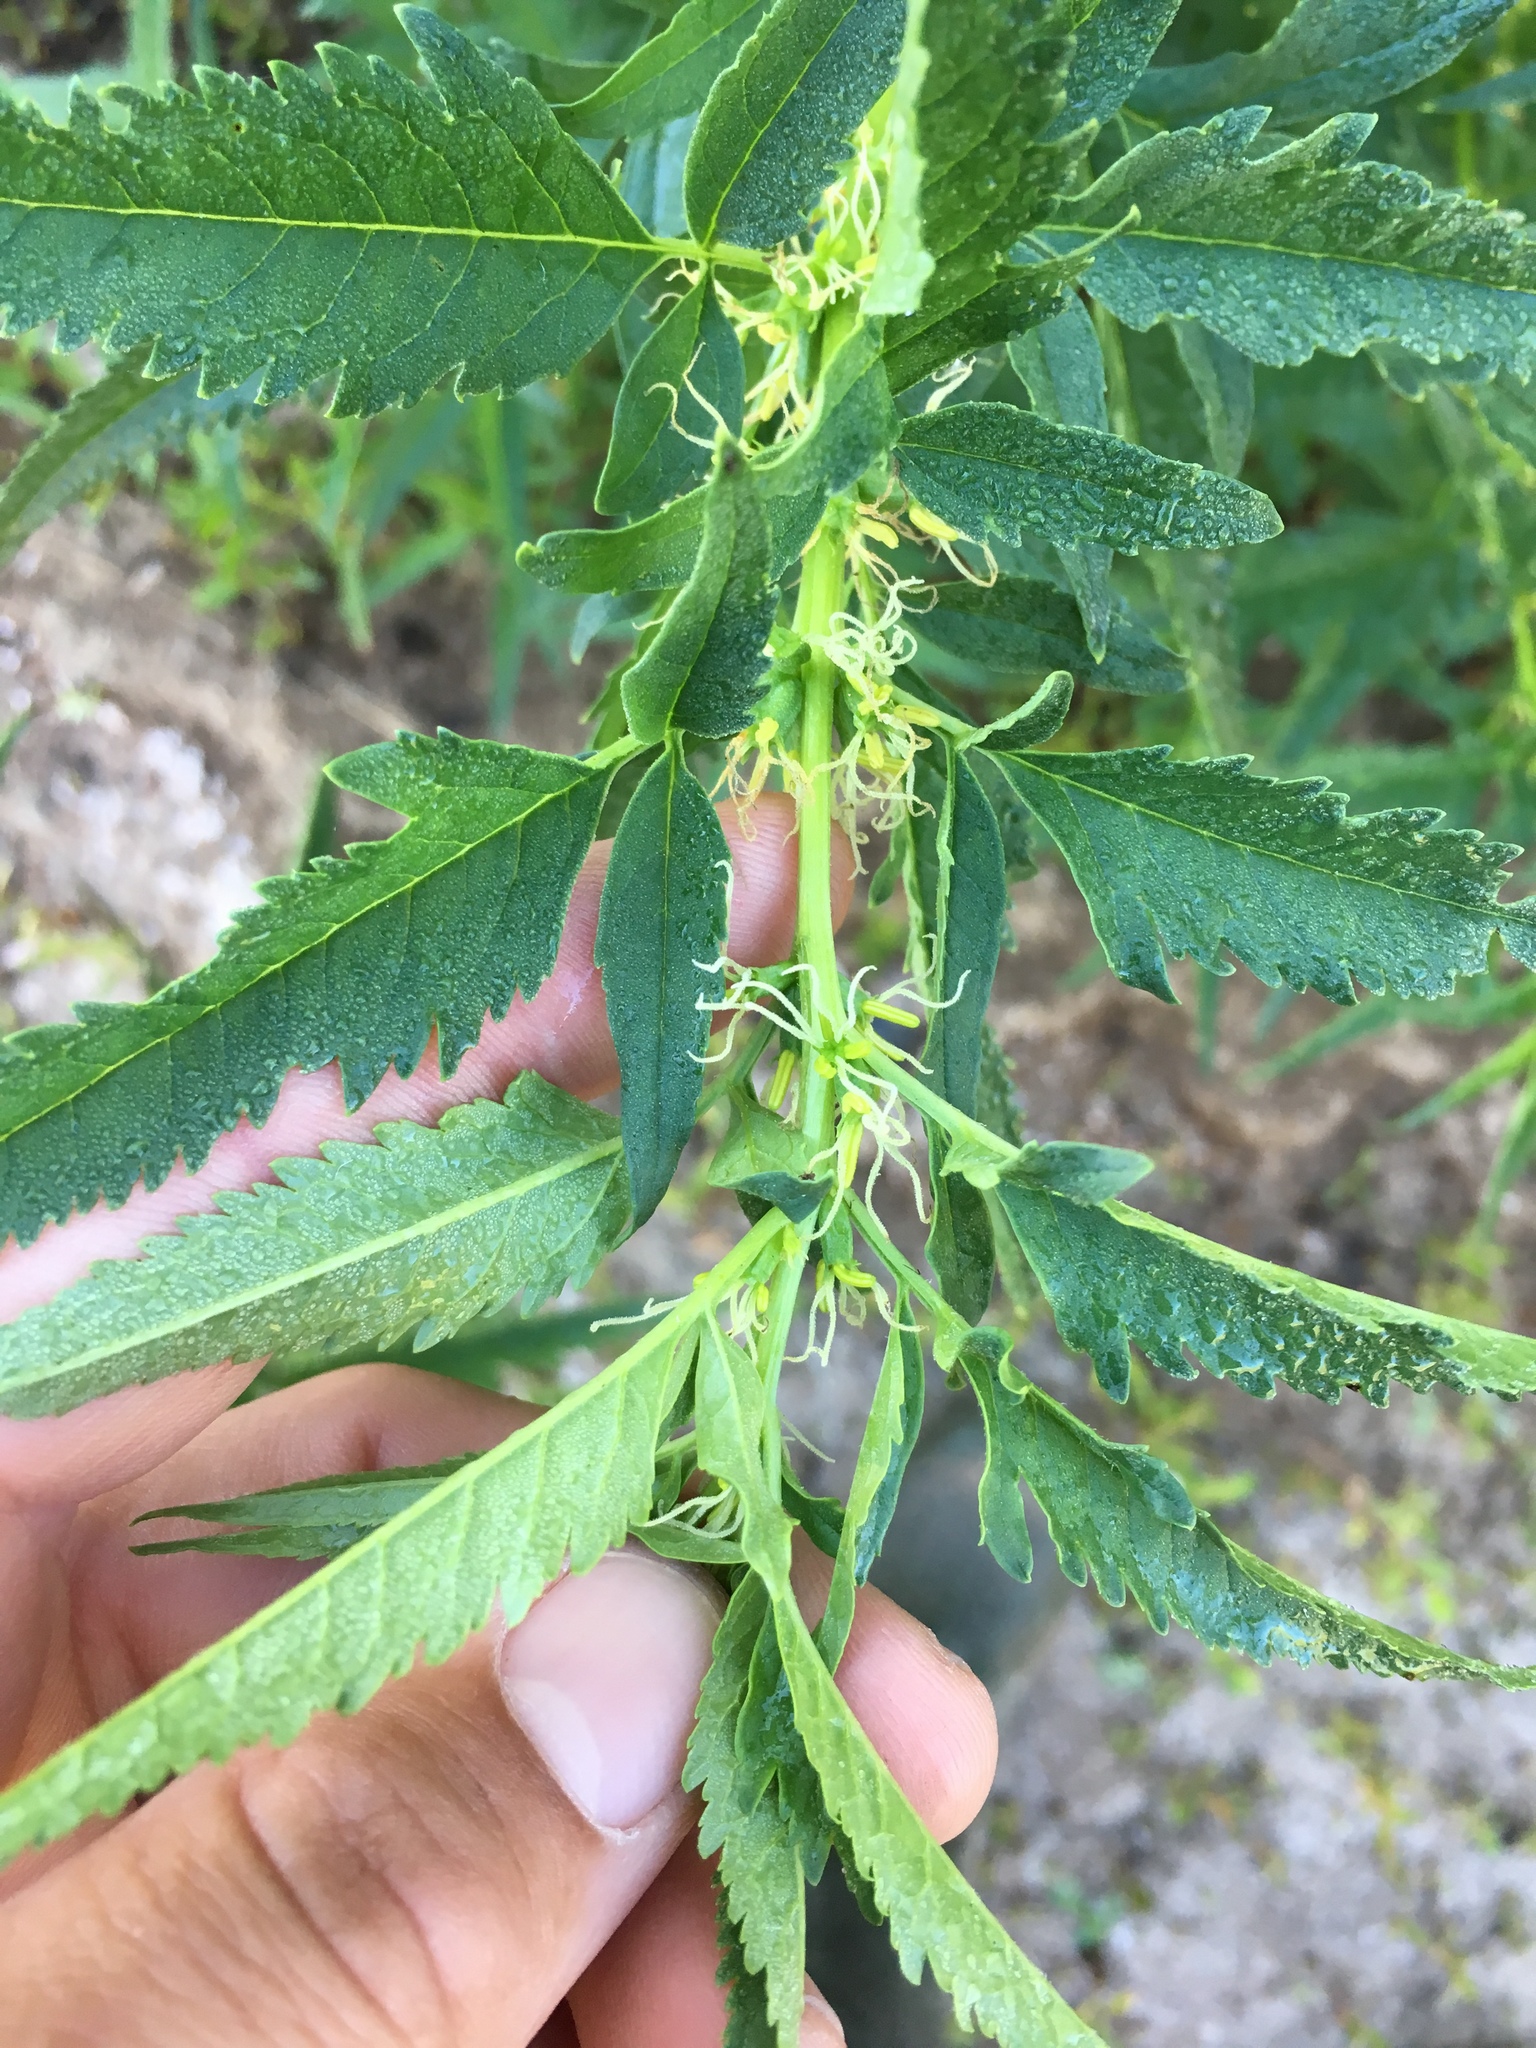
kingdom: Plantae
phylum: Tracheophyta
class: Magnoliopsida
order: Cucurbitales
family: Datiscaceae
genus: Datisca
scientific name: Datisca glomerata
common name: Durango-root
